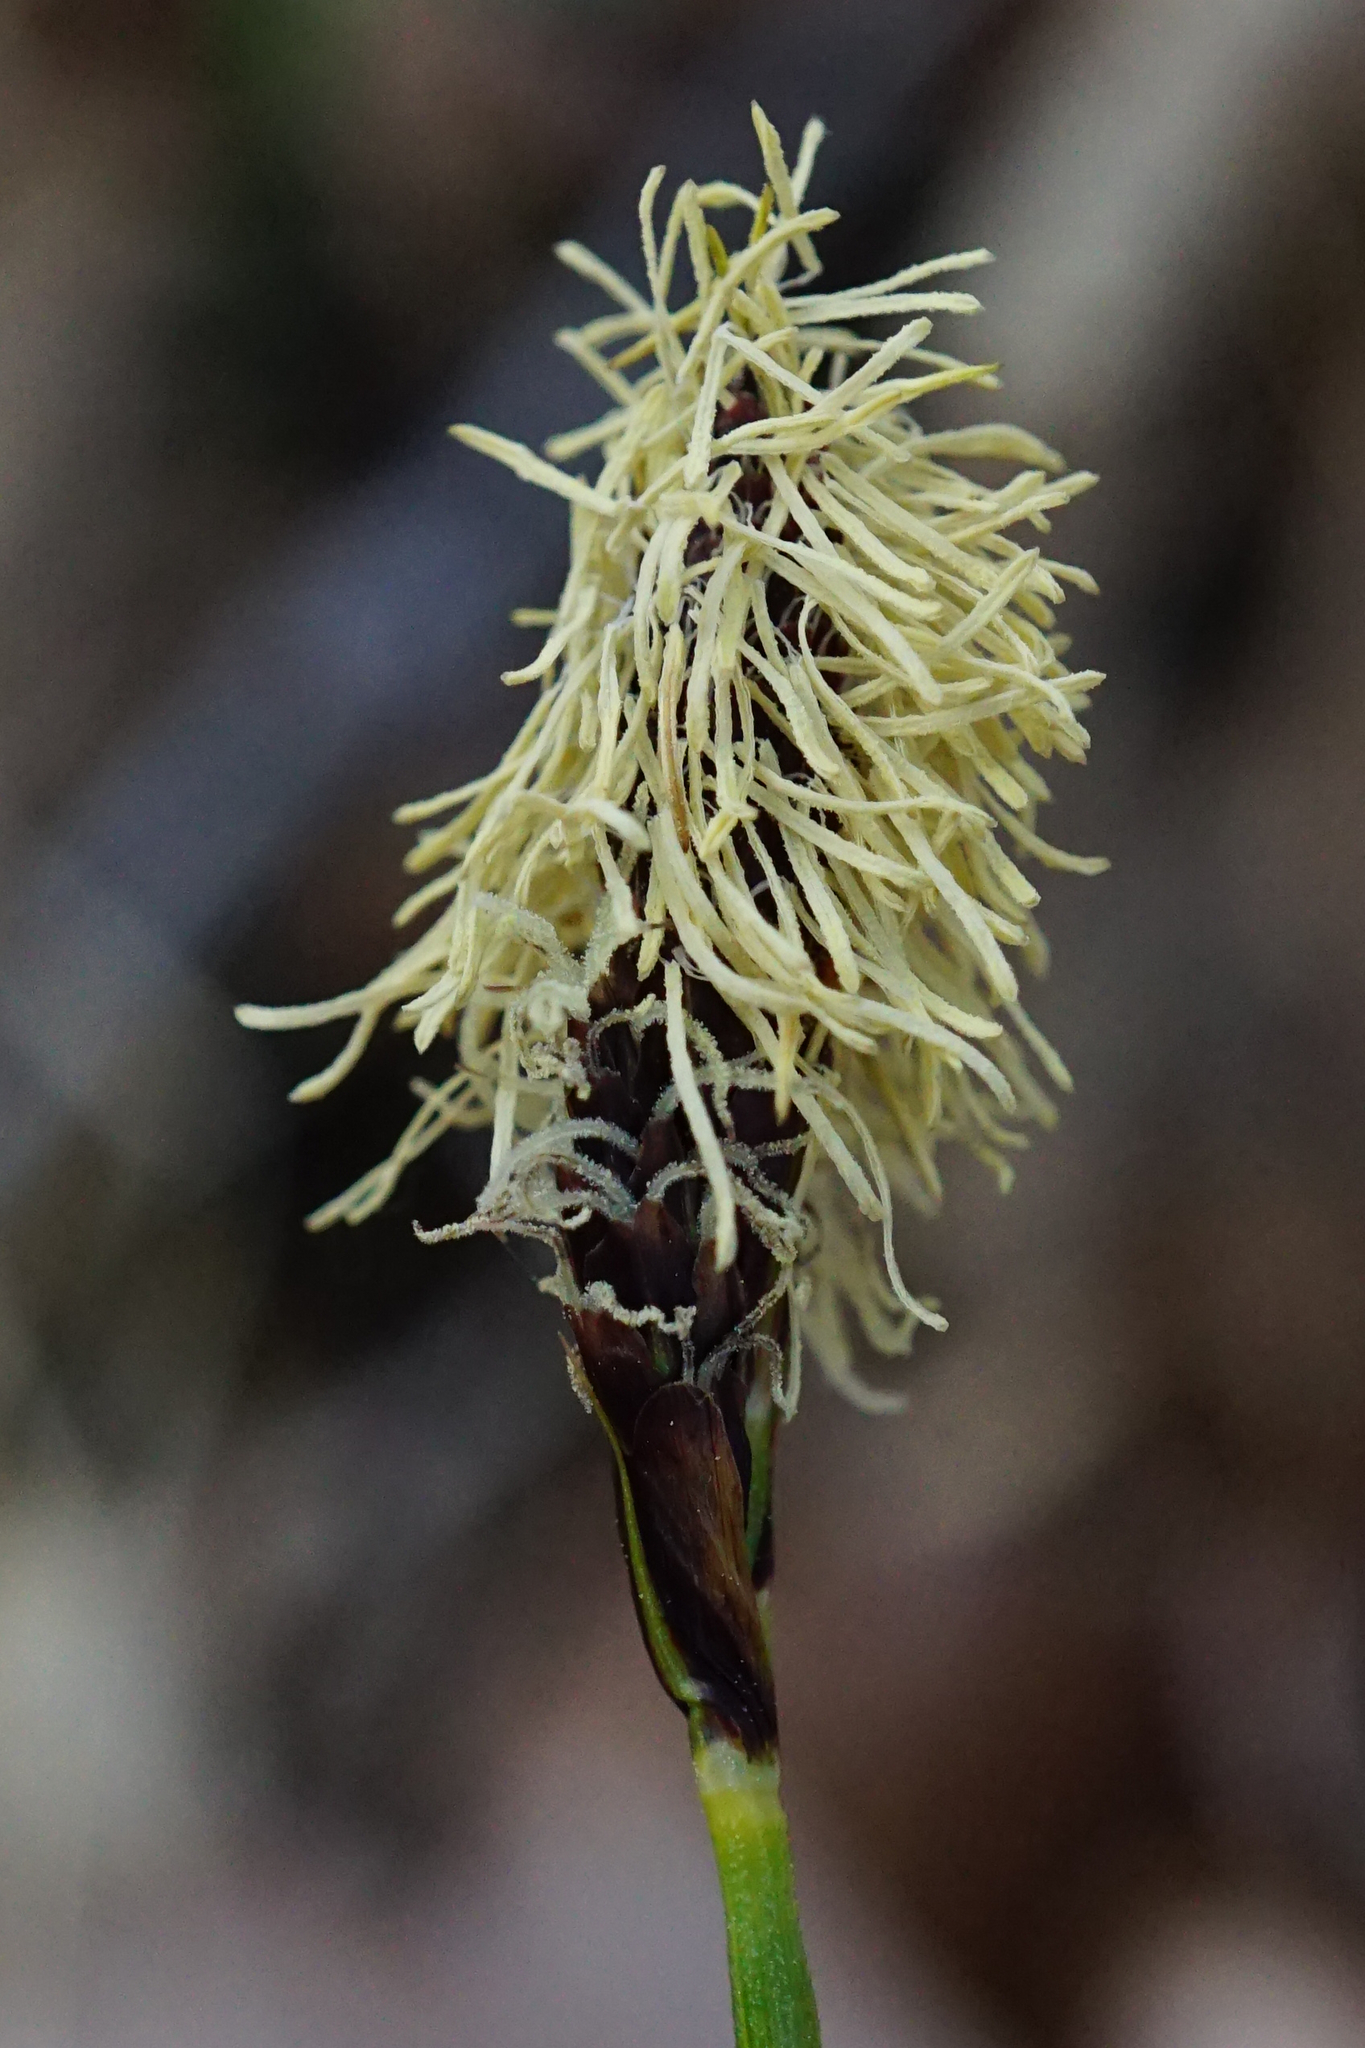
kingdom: Plantae
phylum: Tracheophyta
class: Liliopsida
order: Poales
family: Cyperaceae
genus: Carex
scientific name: Carex caryophyllea
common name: Spring sedge
